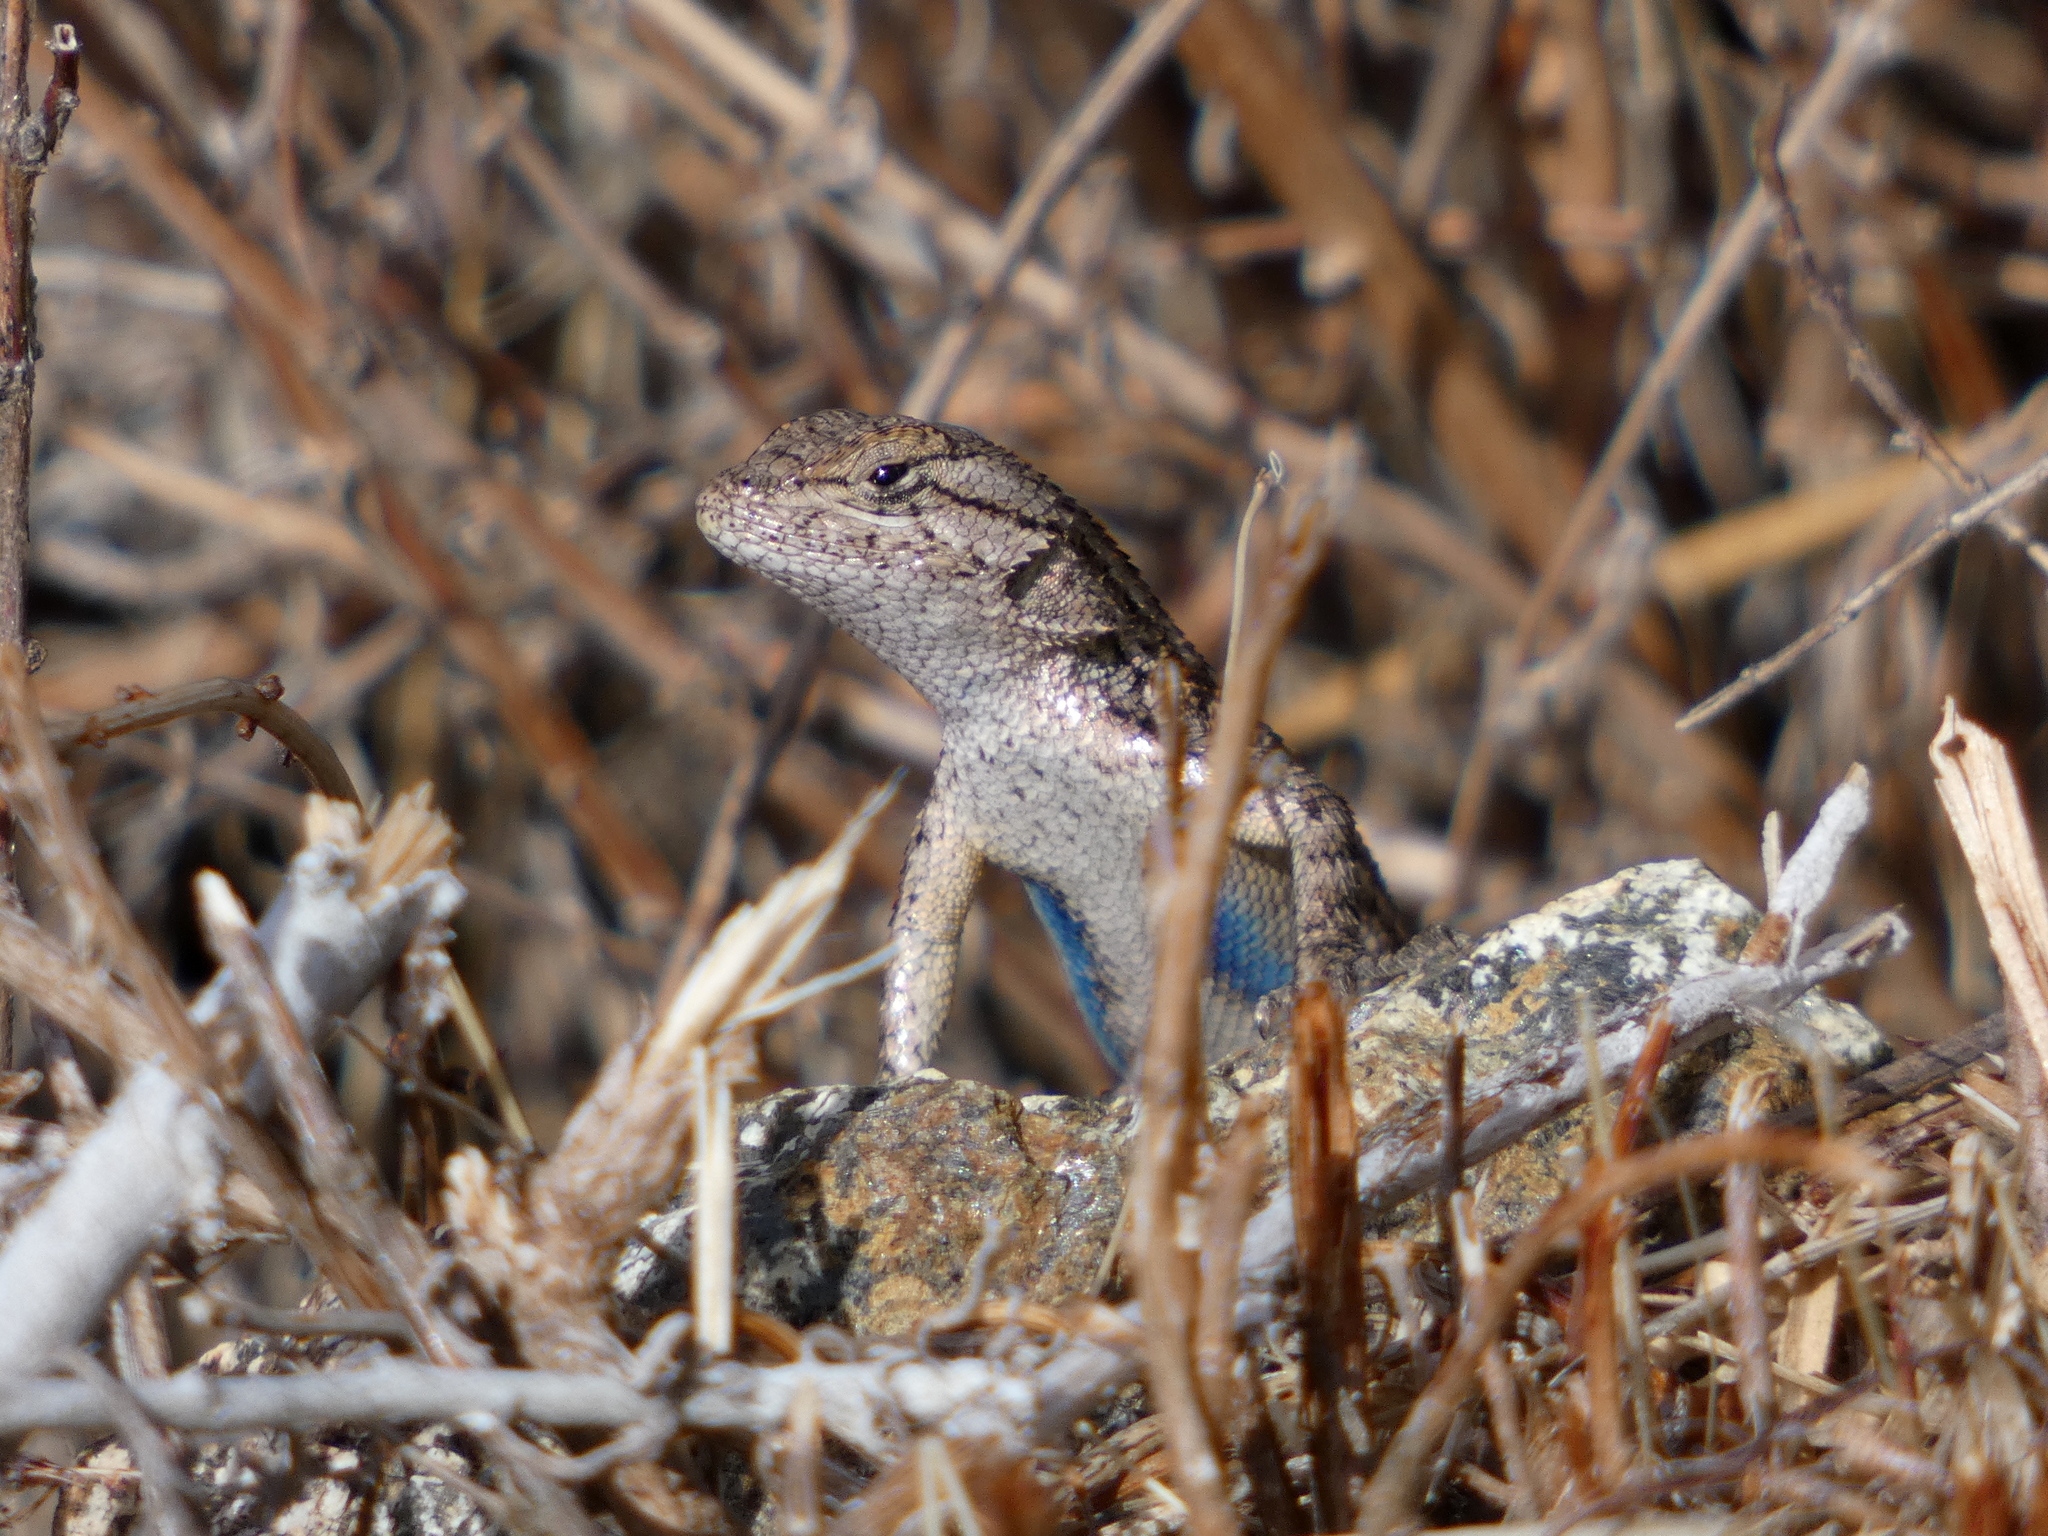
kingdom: Animalia
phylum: Chordata
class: Squamata
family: Phrynosomatidae
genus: Sceloporus
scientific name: Sceloporus occidentalis
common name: Western fence lizard
